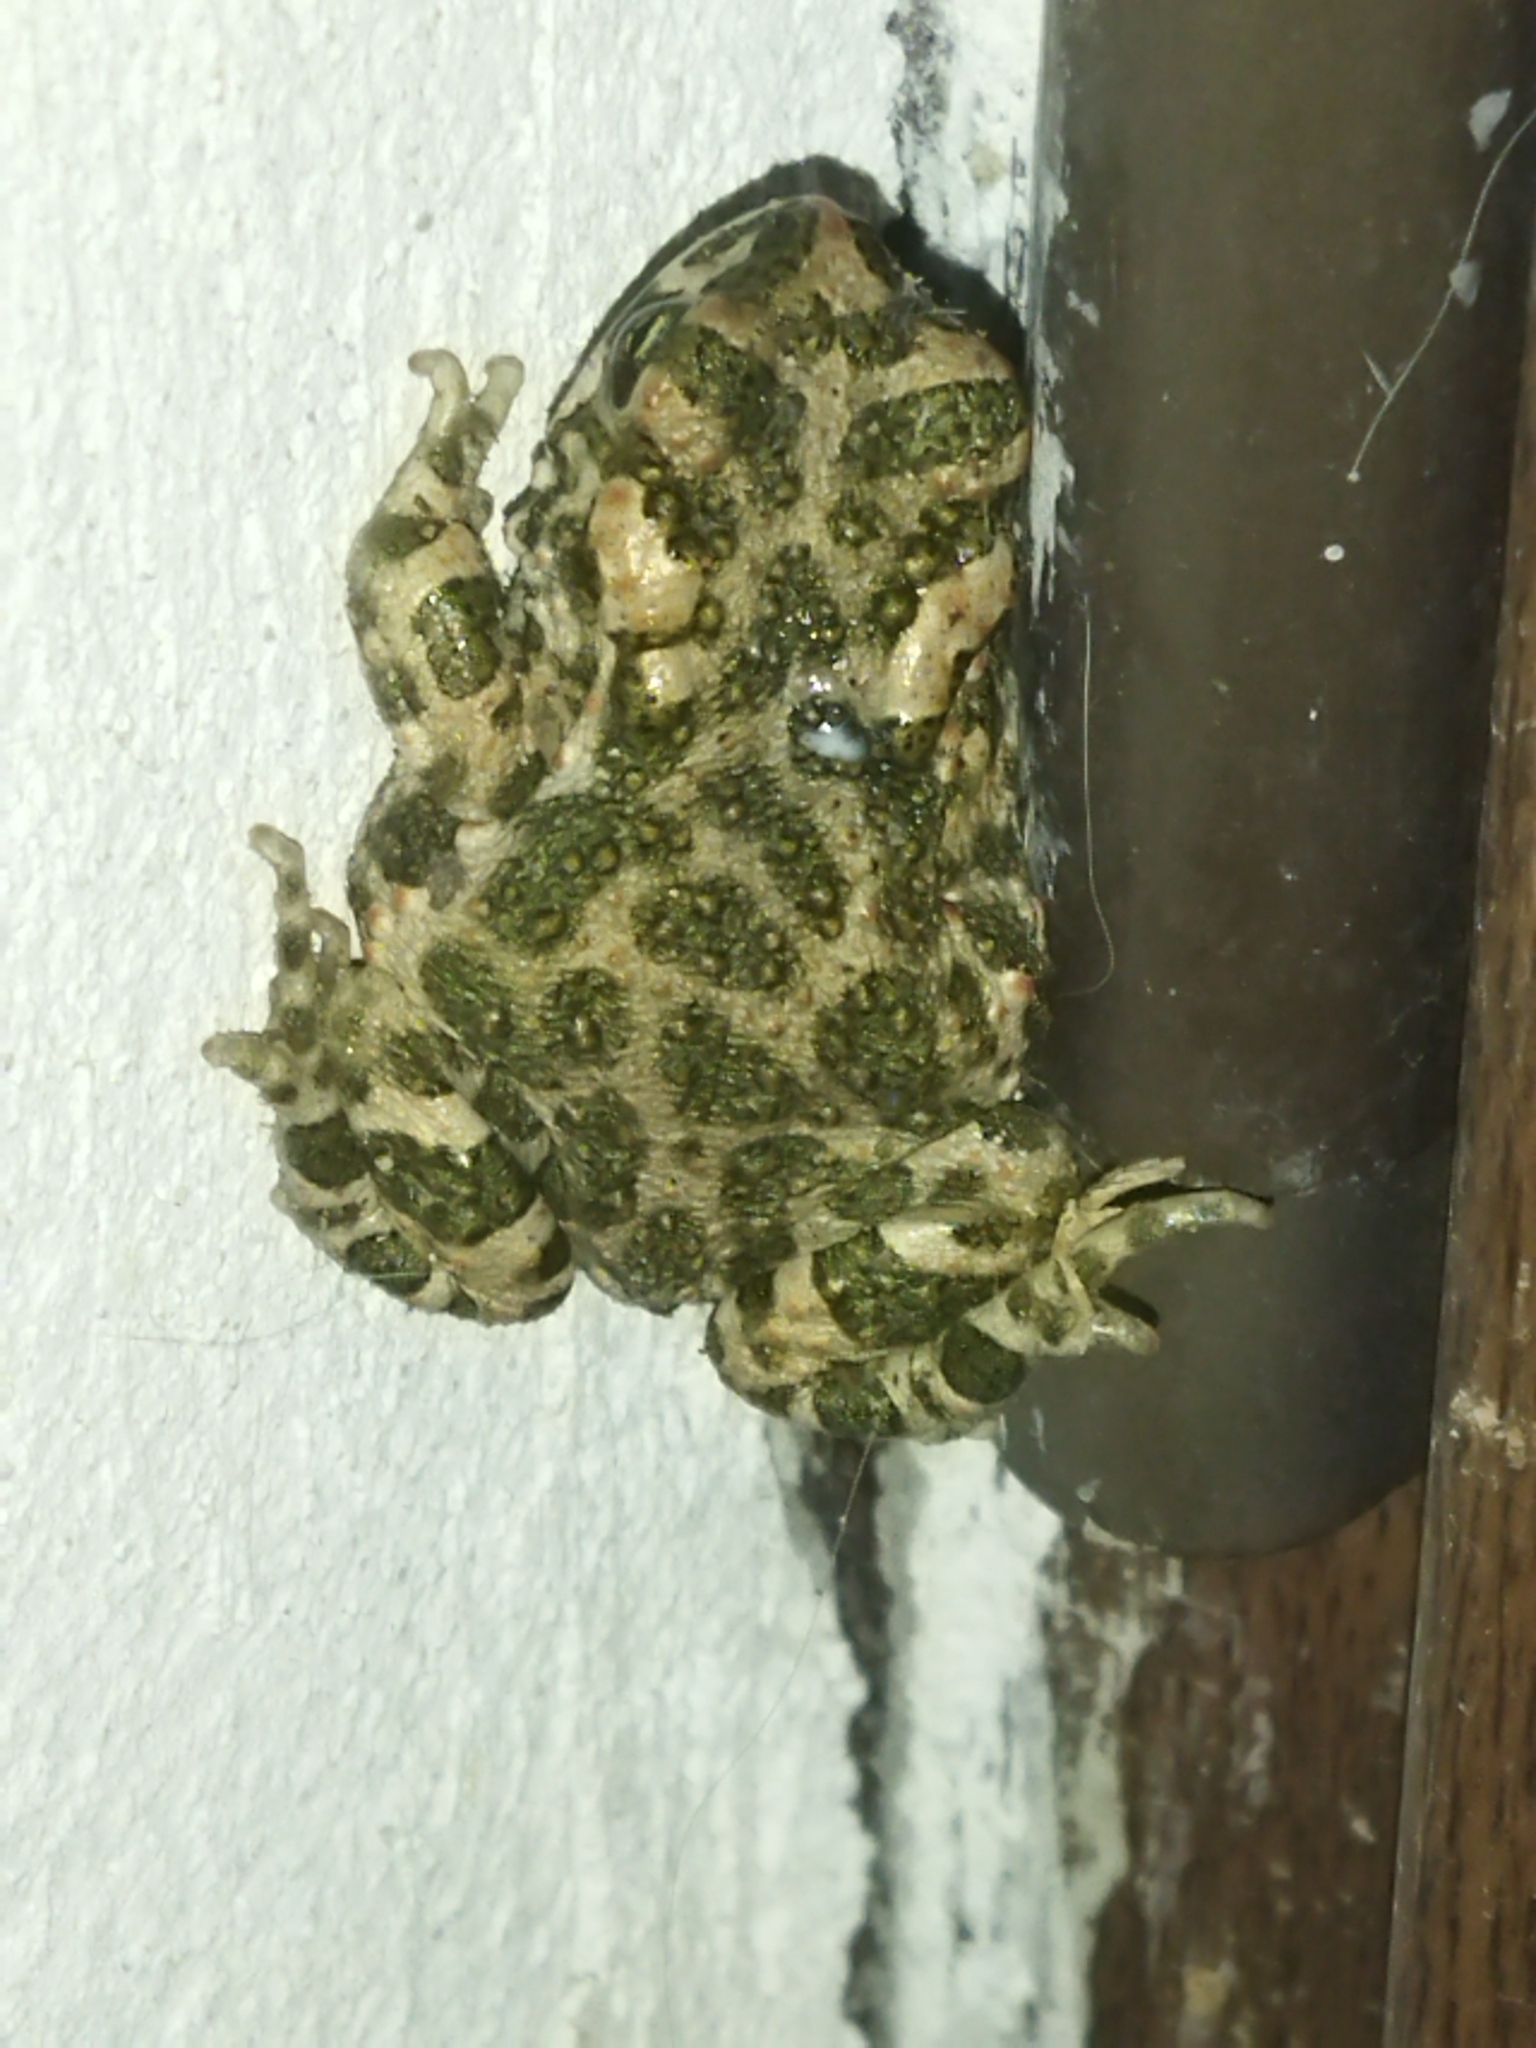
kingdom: Animalia
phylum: Chordata
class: Amphibia
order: Anura
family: Bufonidae
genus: Bufotes
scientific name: Bufotes viridis
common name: European green toad
